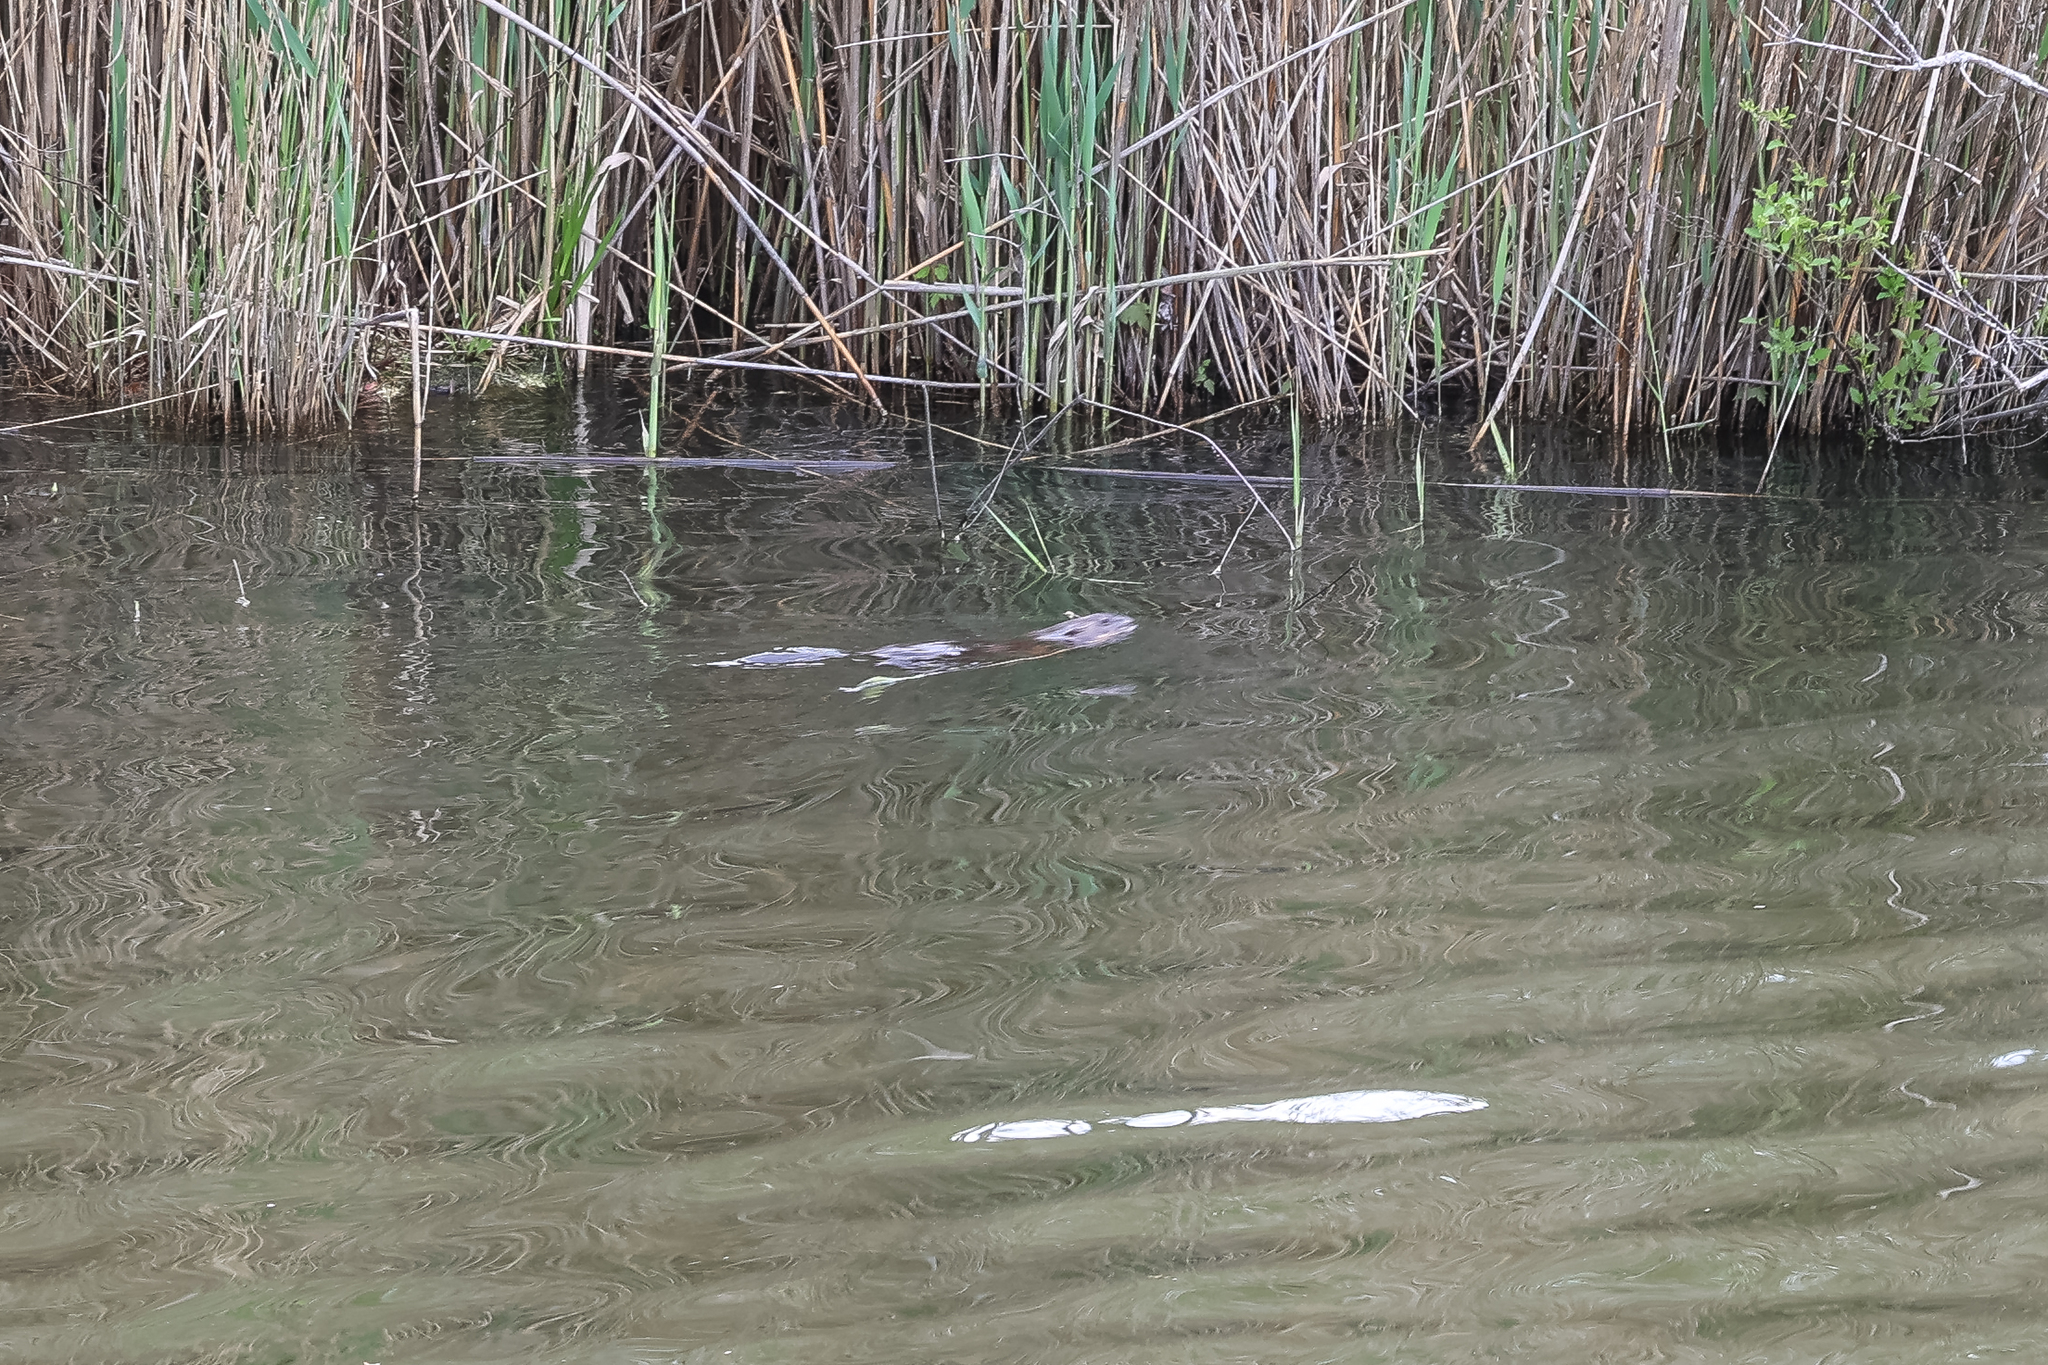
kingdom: Animalia
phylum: Chordata
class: Mammalia
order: Rodentia
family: Cricetidae
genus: Ondatra
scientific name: Ondatra zibethicus
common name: Muskrat
